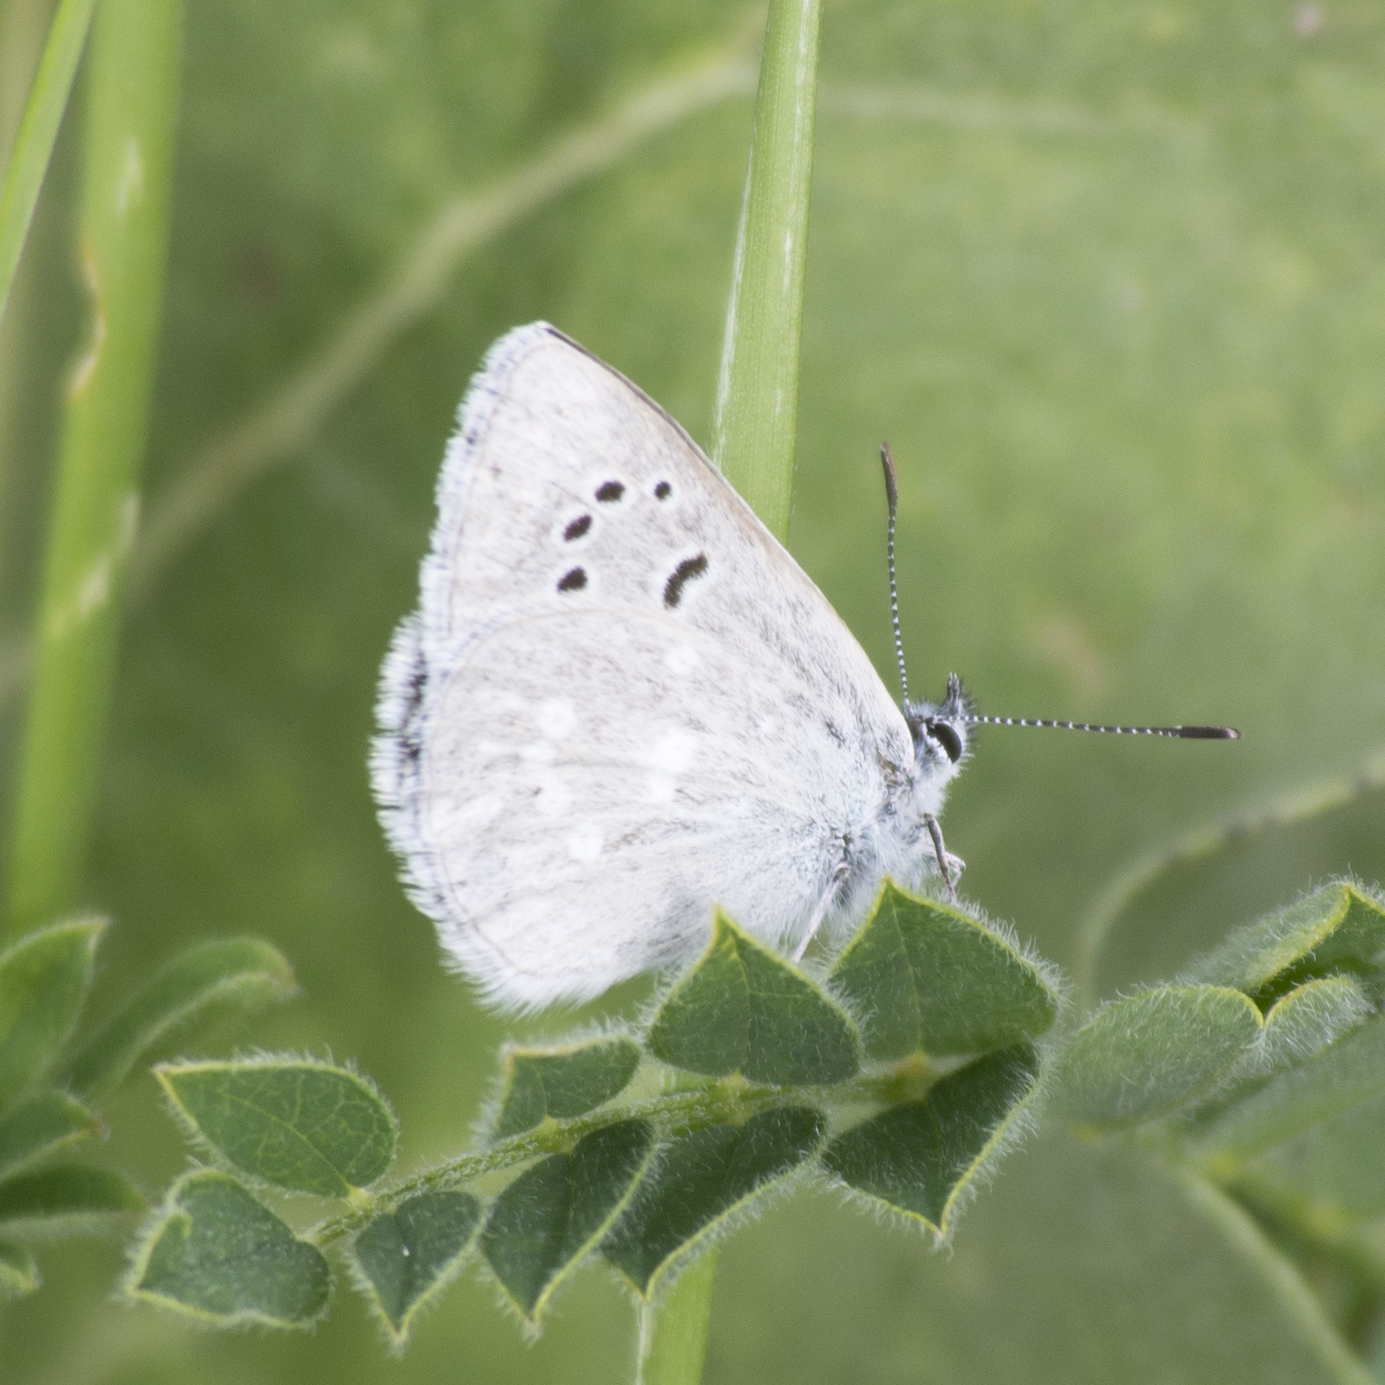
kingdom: Animalia
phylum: Arthropoda
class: Insecta
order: Lepidoptera
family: Lycaenidae
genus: Icaricia
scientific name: Icaricia icarioides
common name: Boisduval's blue
